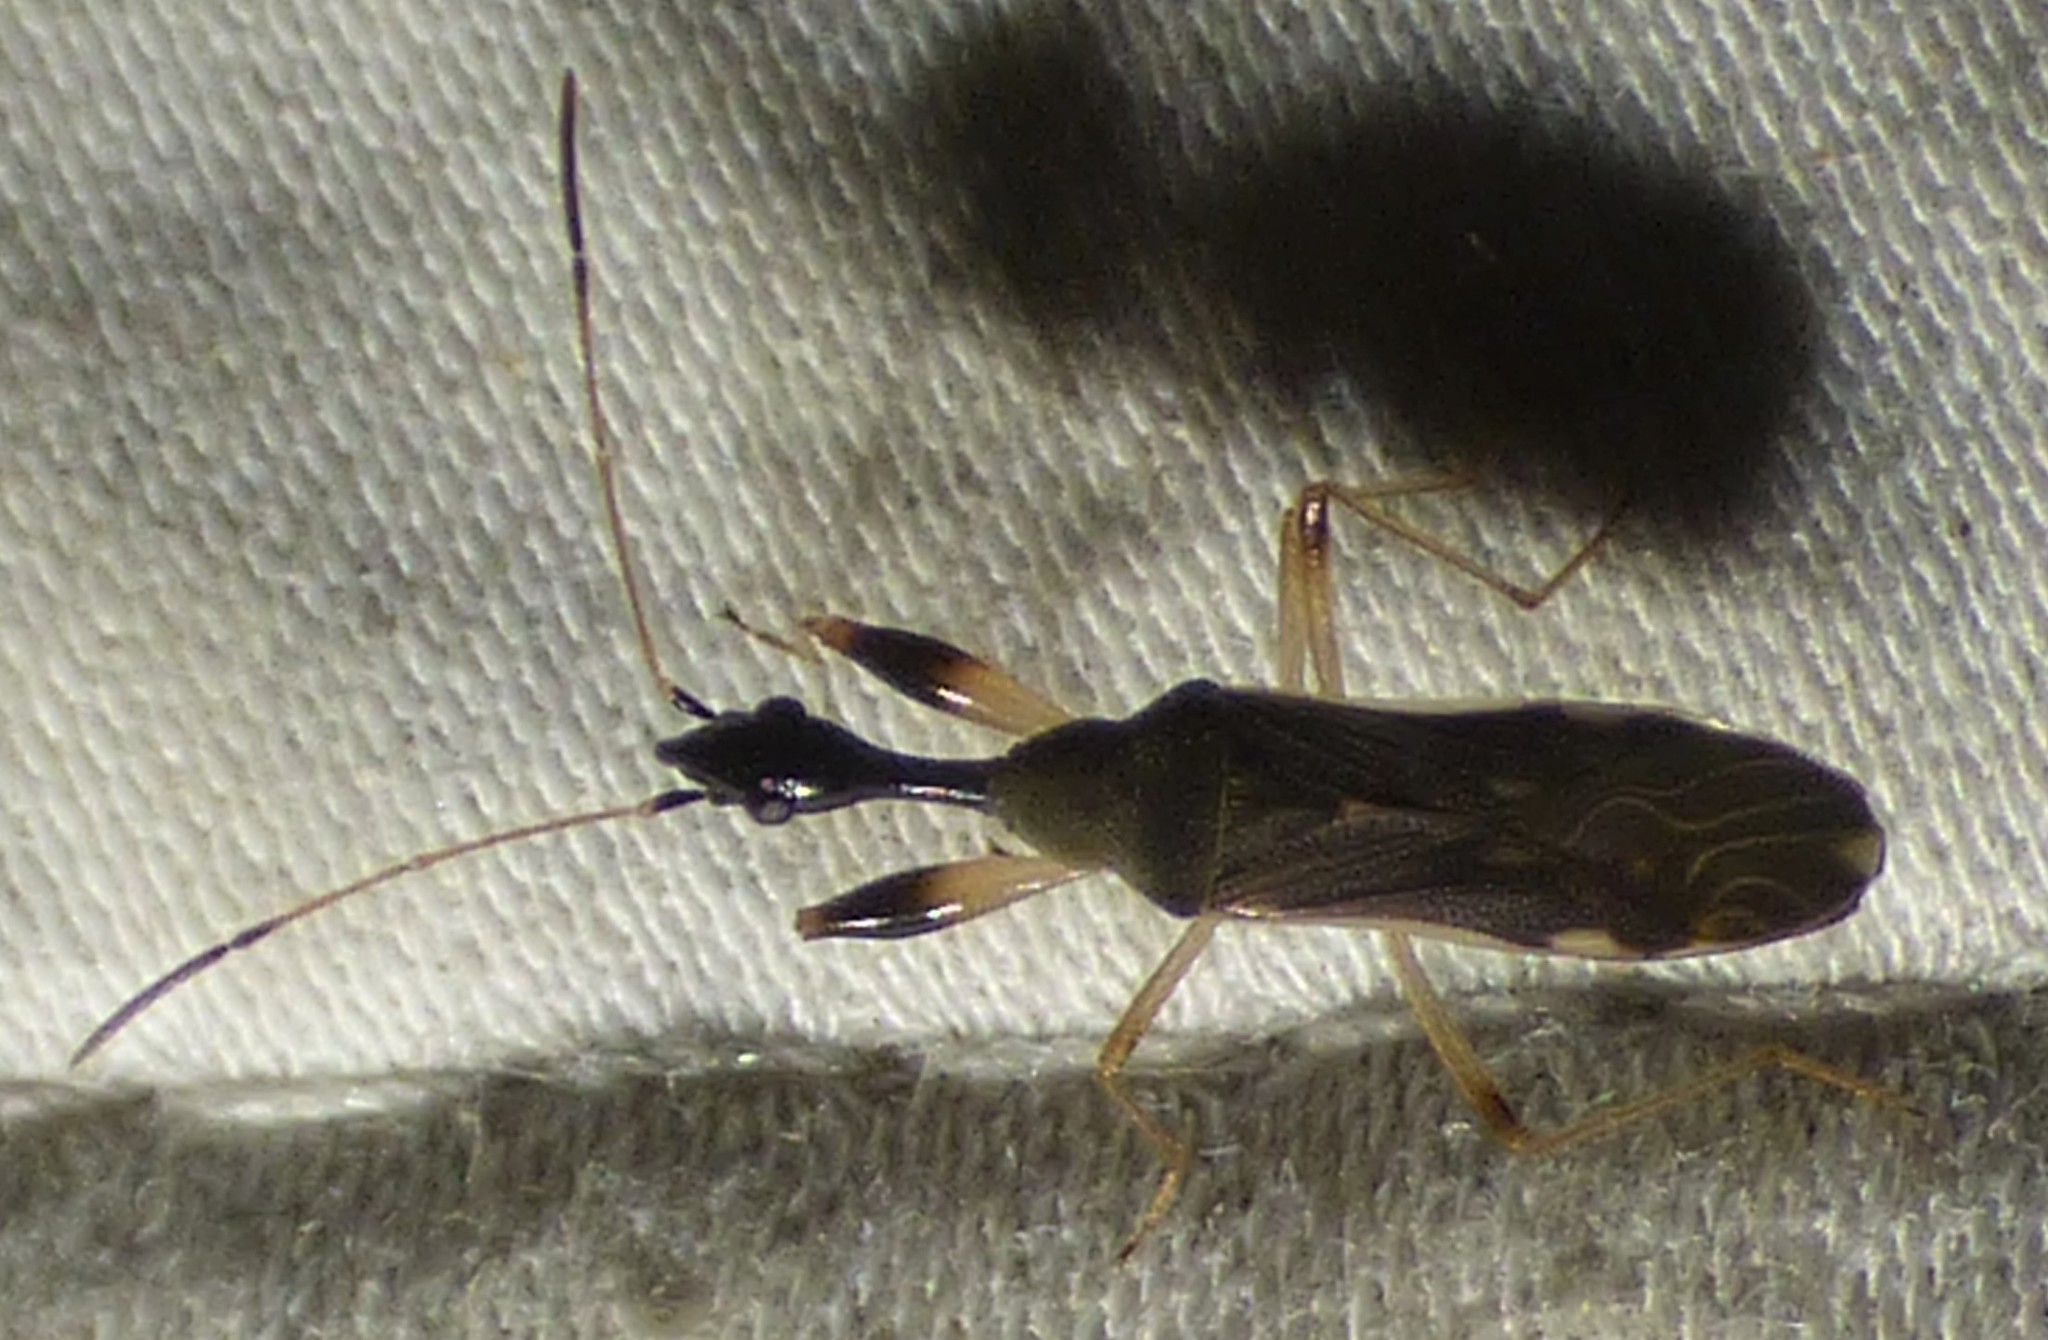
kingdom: Animalia
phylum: Arthropoda
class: Insecta
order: Hemiptera
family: Rhyparochromidae
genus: Myodocha
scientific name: Myodocha serripes
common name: Long-necked seed bug
